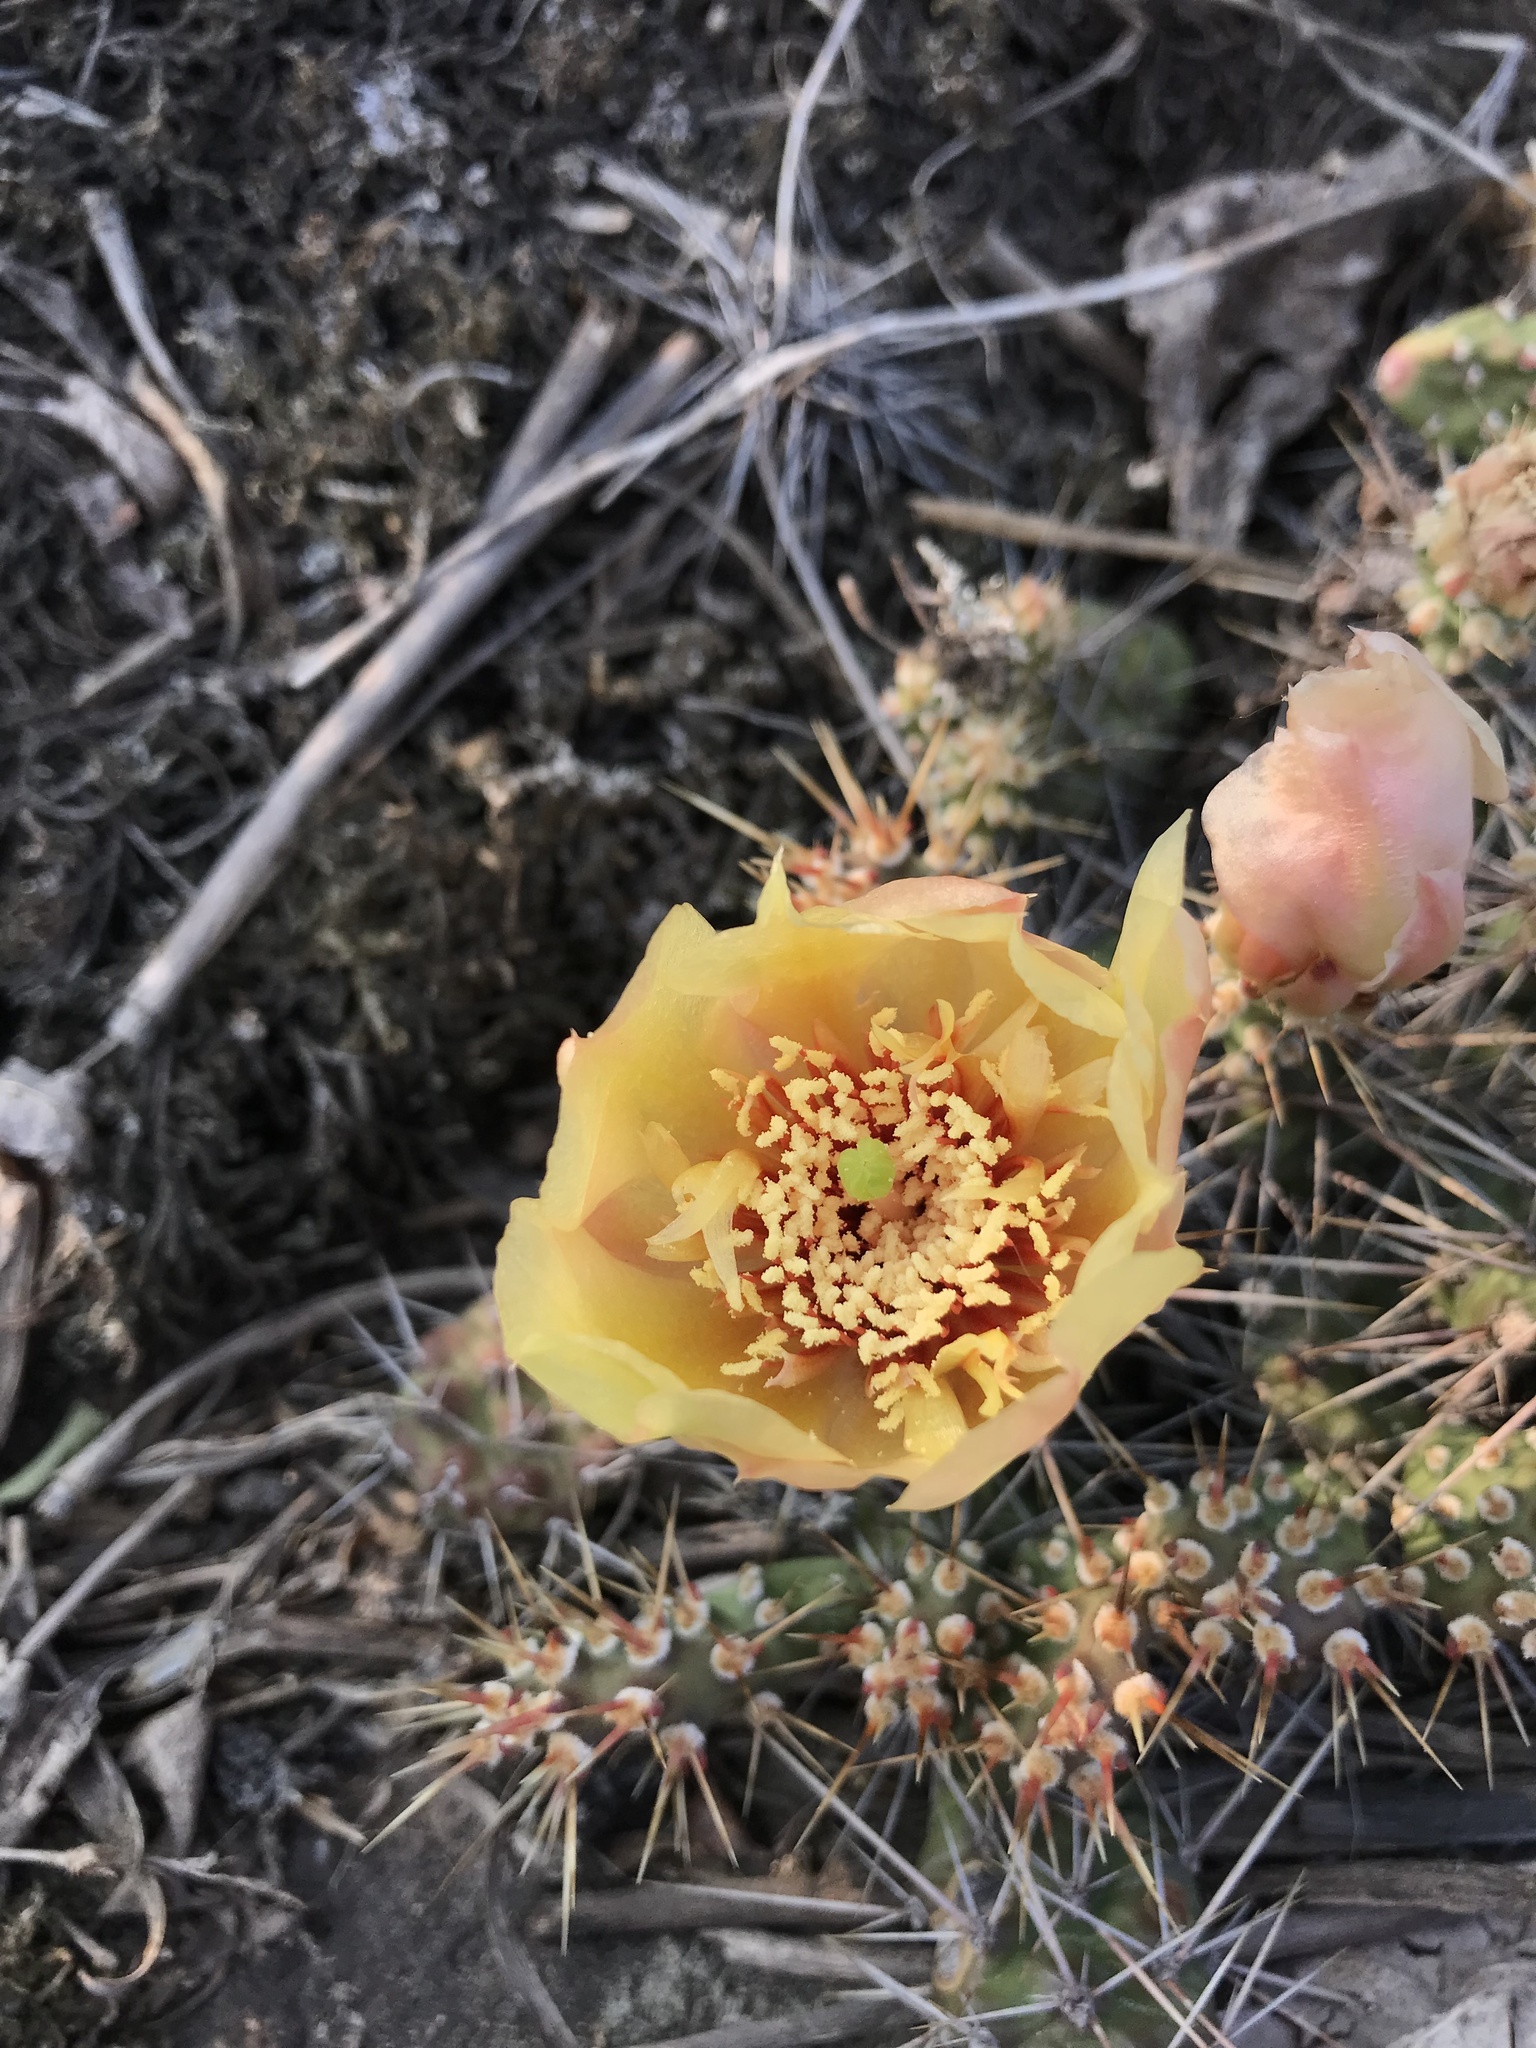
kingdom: Plantae
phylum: Tracheophyta
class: Magnoliopsida
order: Caryophyllales
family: Cactaceae
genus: Opuntia
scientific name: Opuntia fragilis
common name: Brittle cactus
